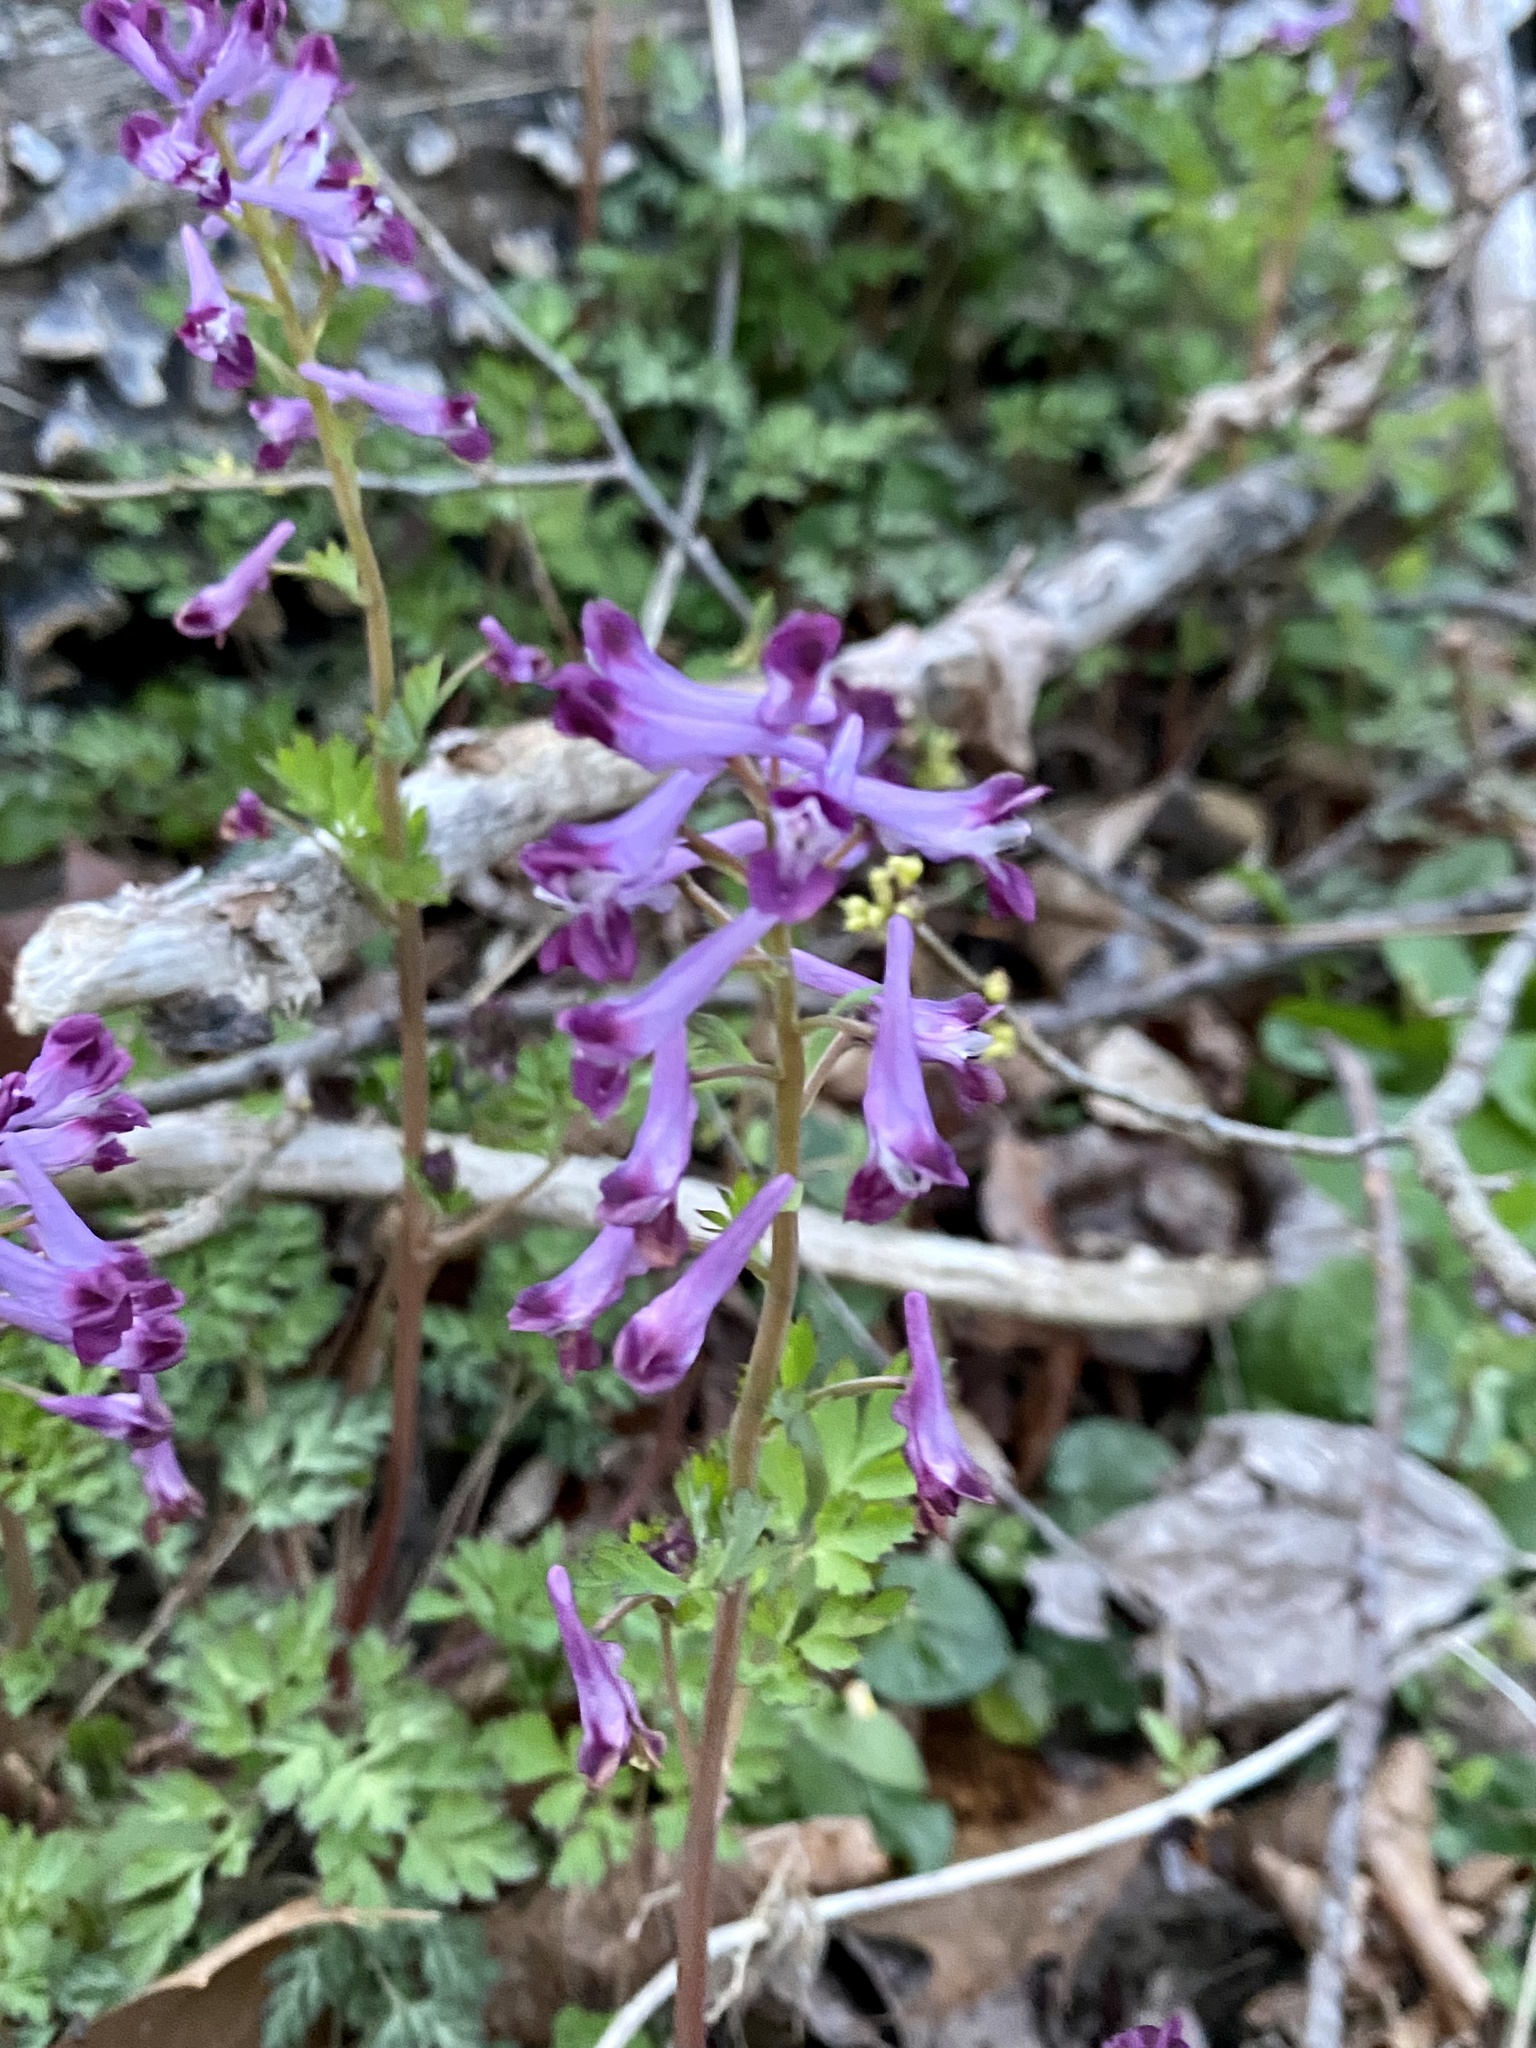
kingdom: Plantae
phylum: Tracheophyta
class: Magnoliopsida
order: Ranunculales
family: Papaveraceae
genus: Corydalis
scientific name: Corydalis incisa
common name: Incised fumewort
